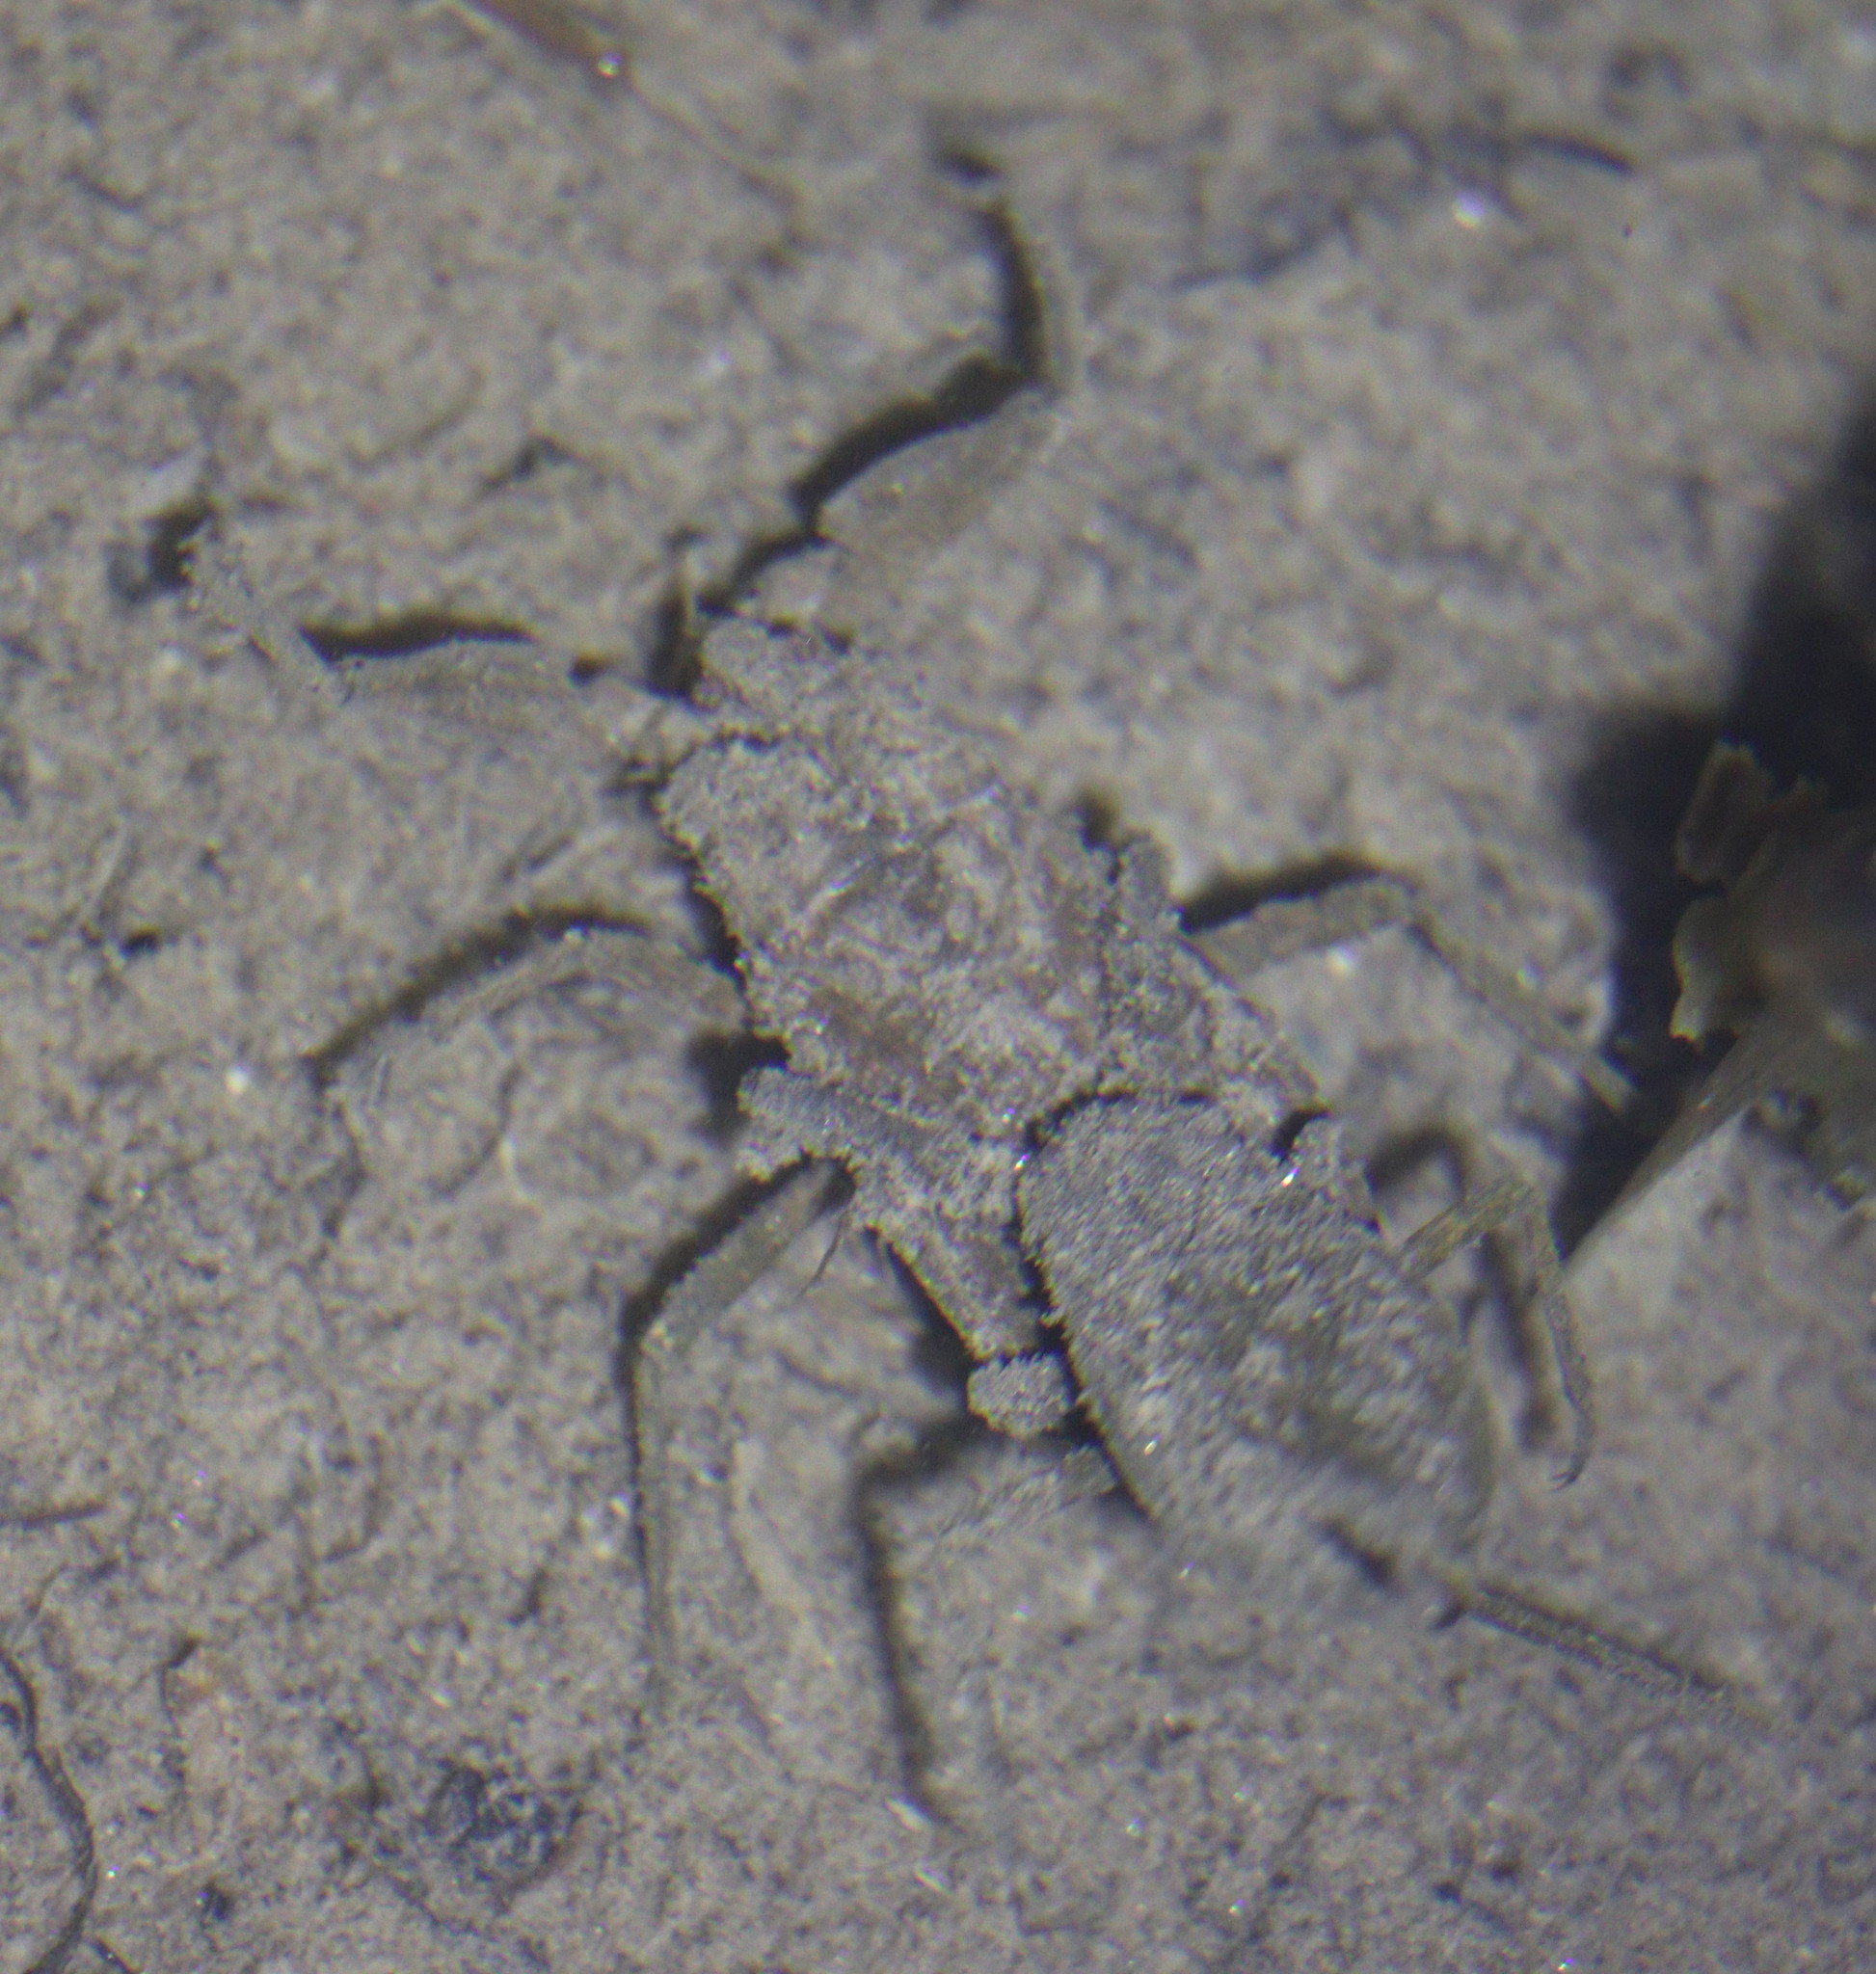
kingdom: Animalia
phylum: Arthropoda
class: Insecta
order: Hemiptera
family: Nepidae
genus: Nepa
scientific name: Nepa cinerea
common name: Water scorpion
